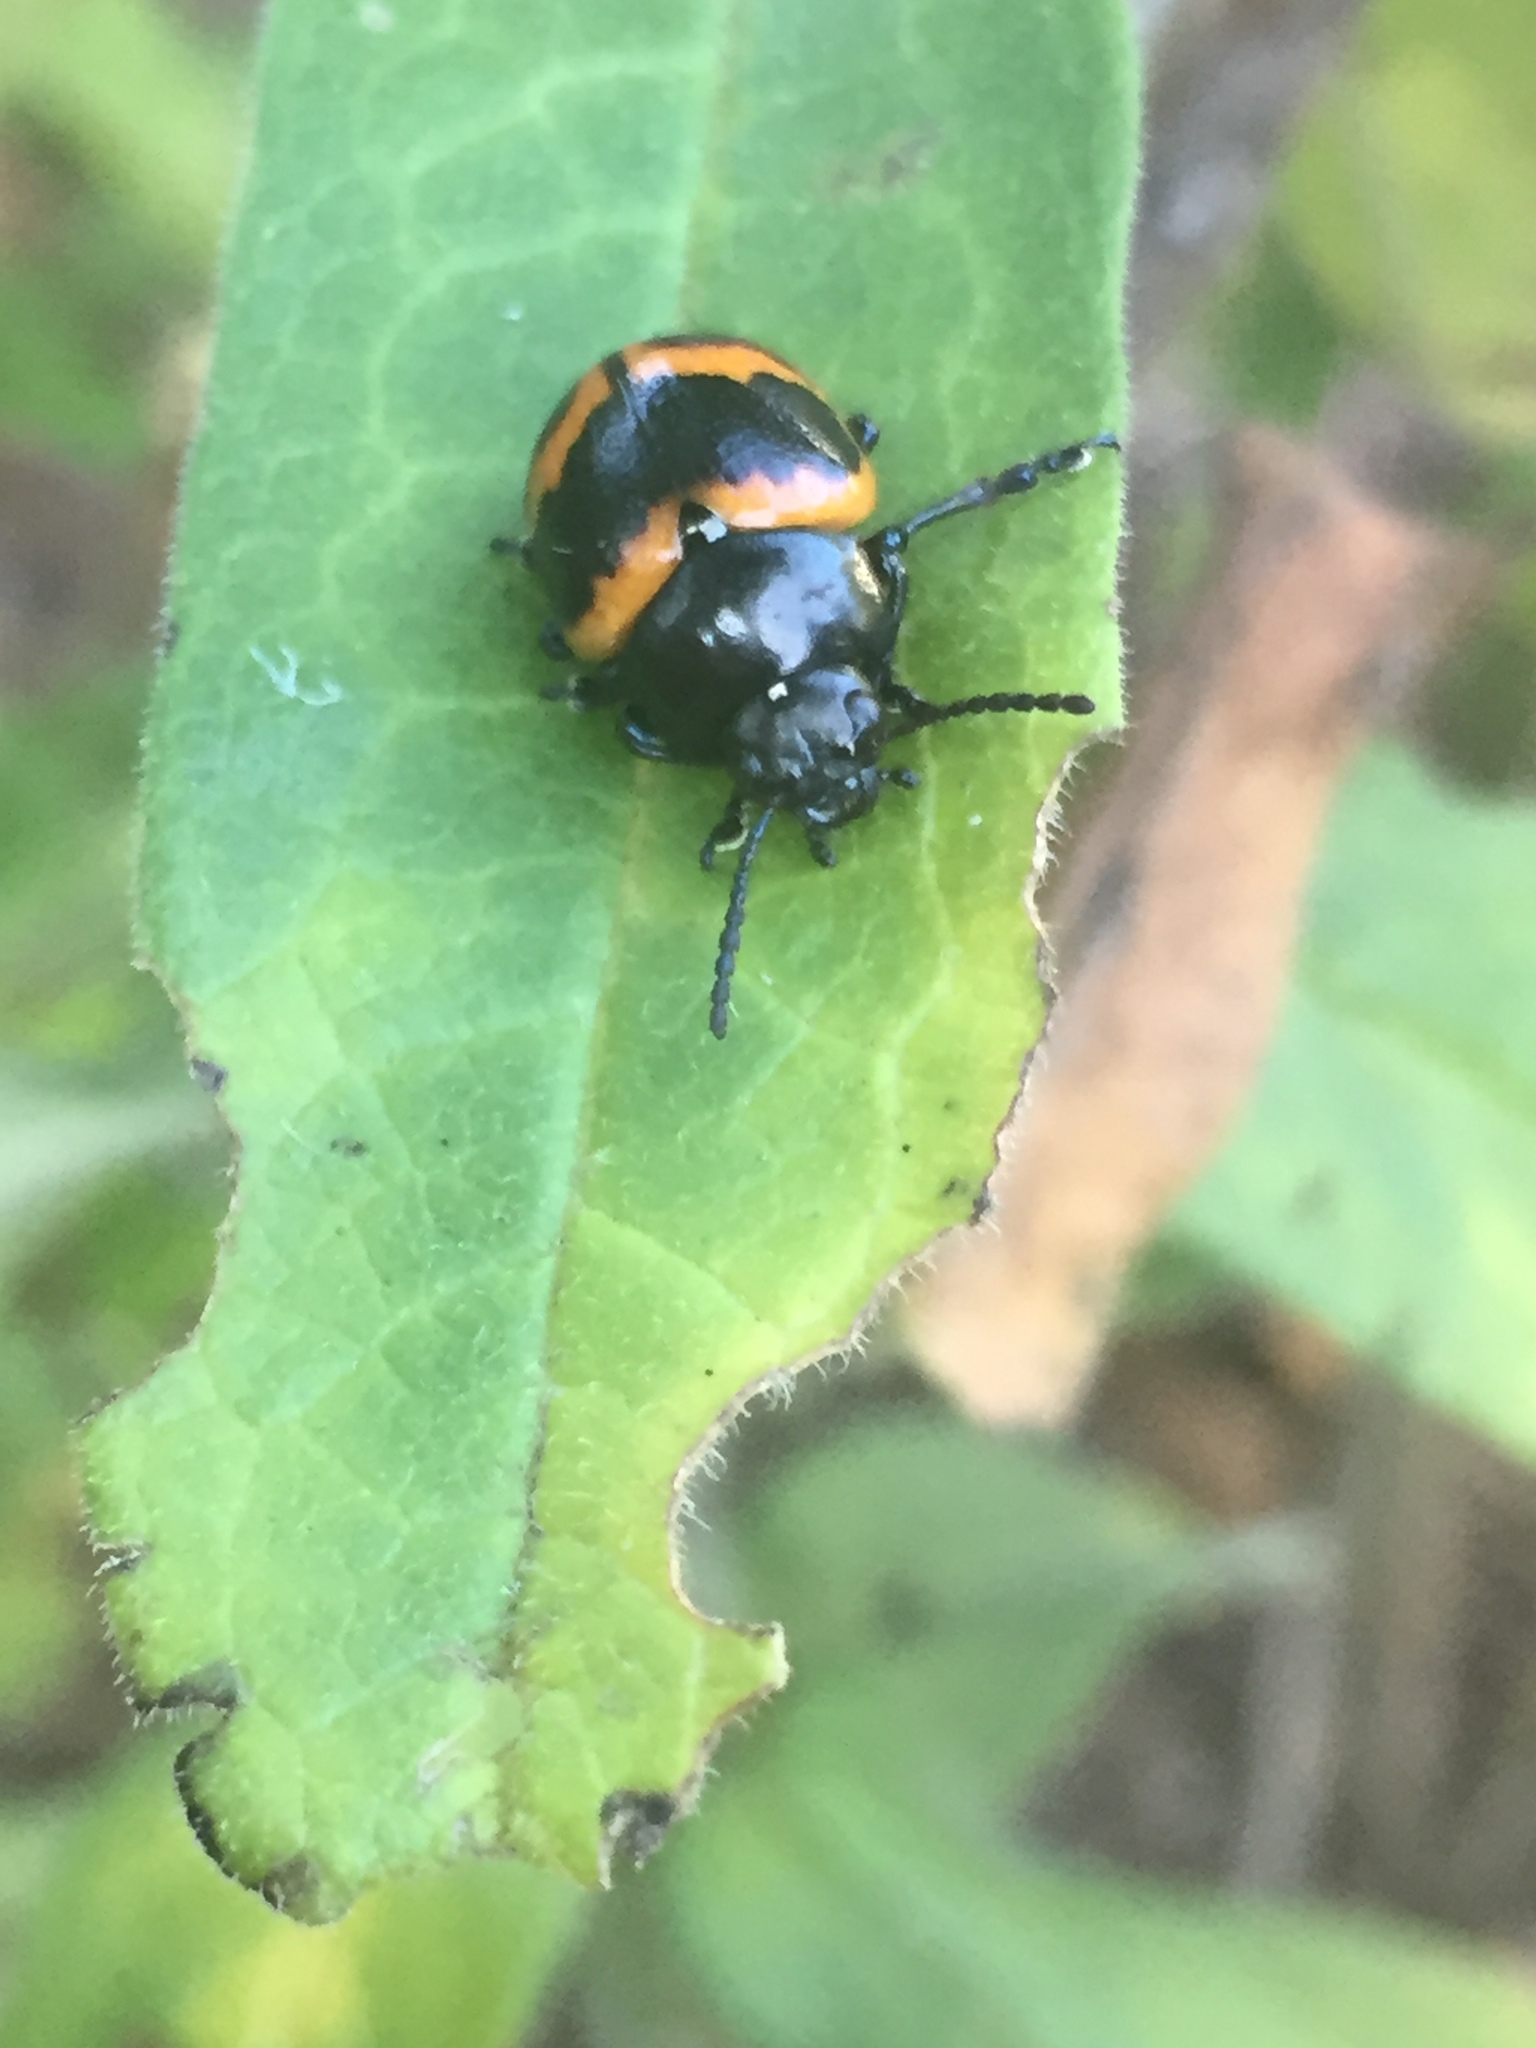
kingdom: Animalia
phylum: Arthropoda
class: Insecta
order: Coleoptera
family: Chrysomelidae
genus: Labidomera
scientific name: Labidomera clivicollis
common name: Swamp milkweed leaf beetle
